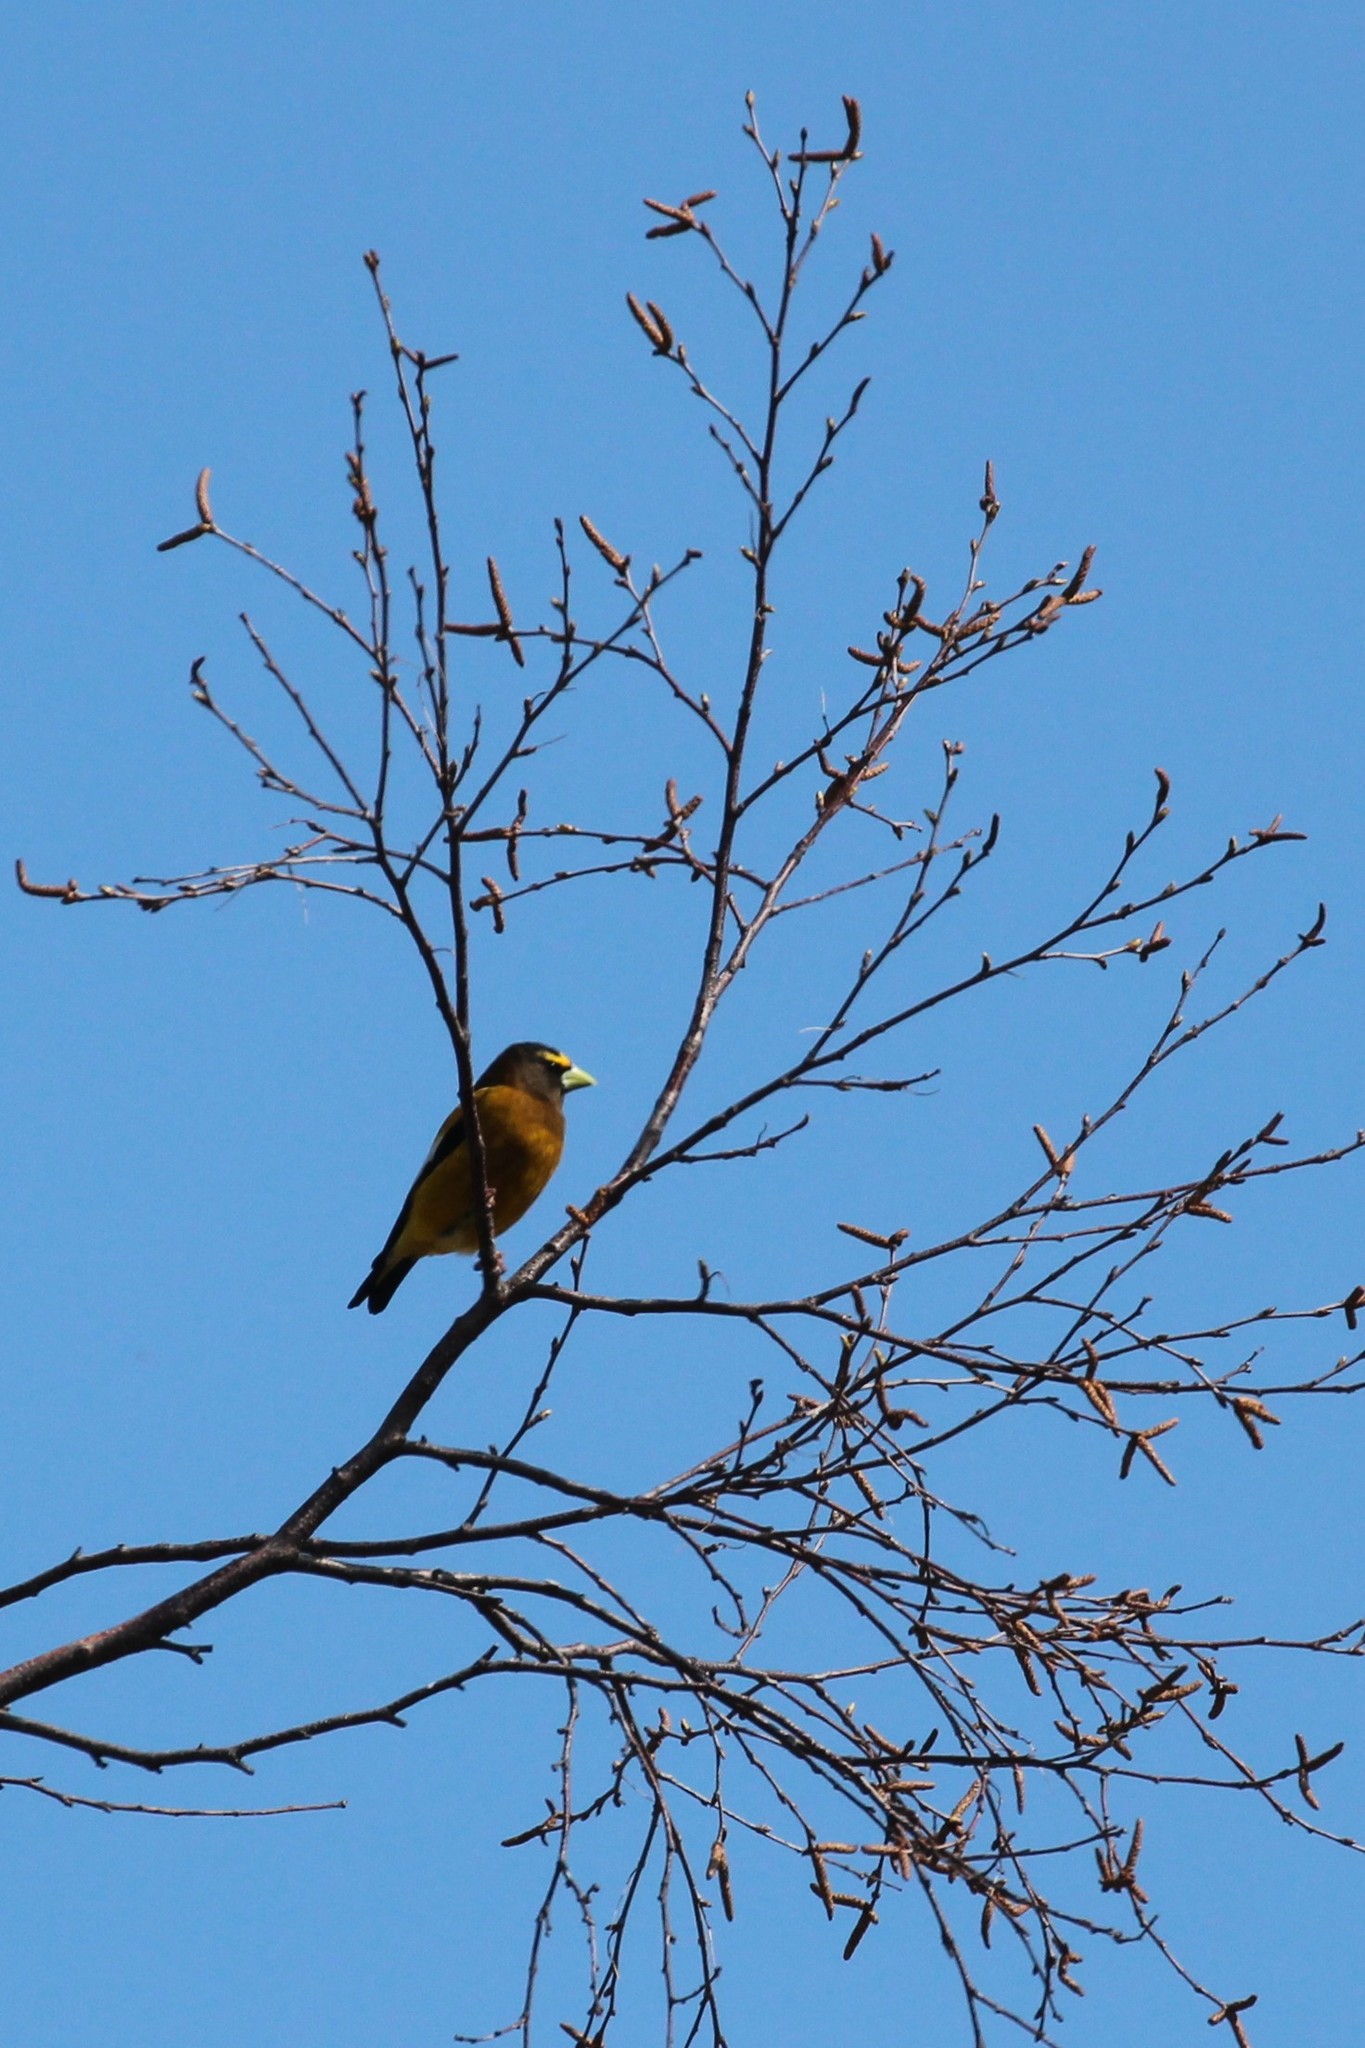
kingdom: Animalia
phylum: Chordata
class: Aves
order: Passeriformes
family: Fringillidae
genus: Hesperiphona
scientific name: Hesperiphona vespertina
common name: Evening grosbeak
